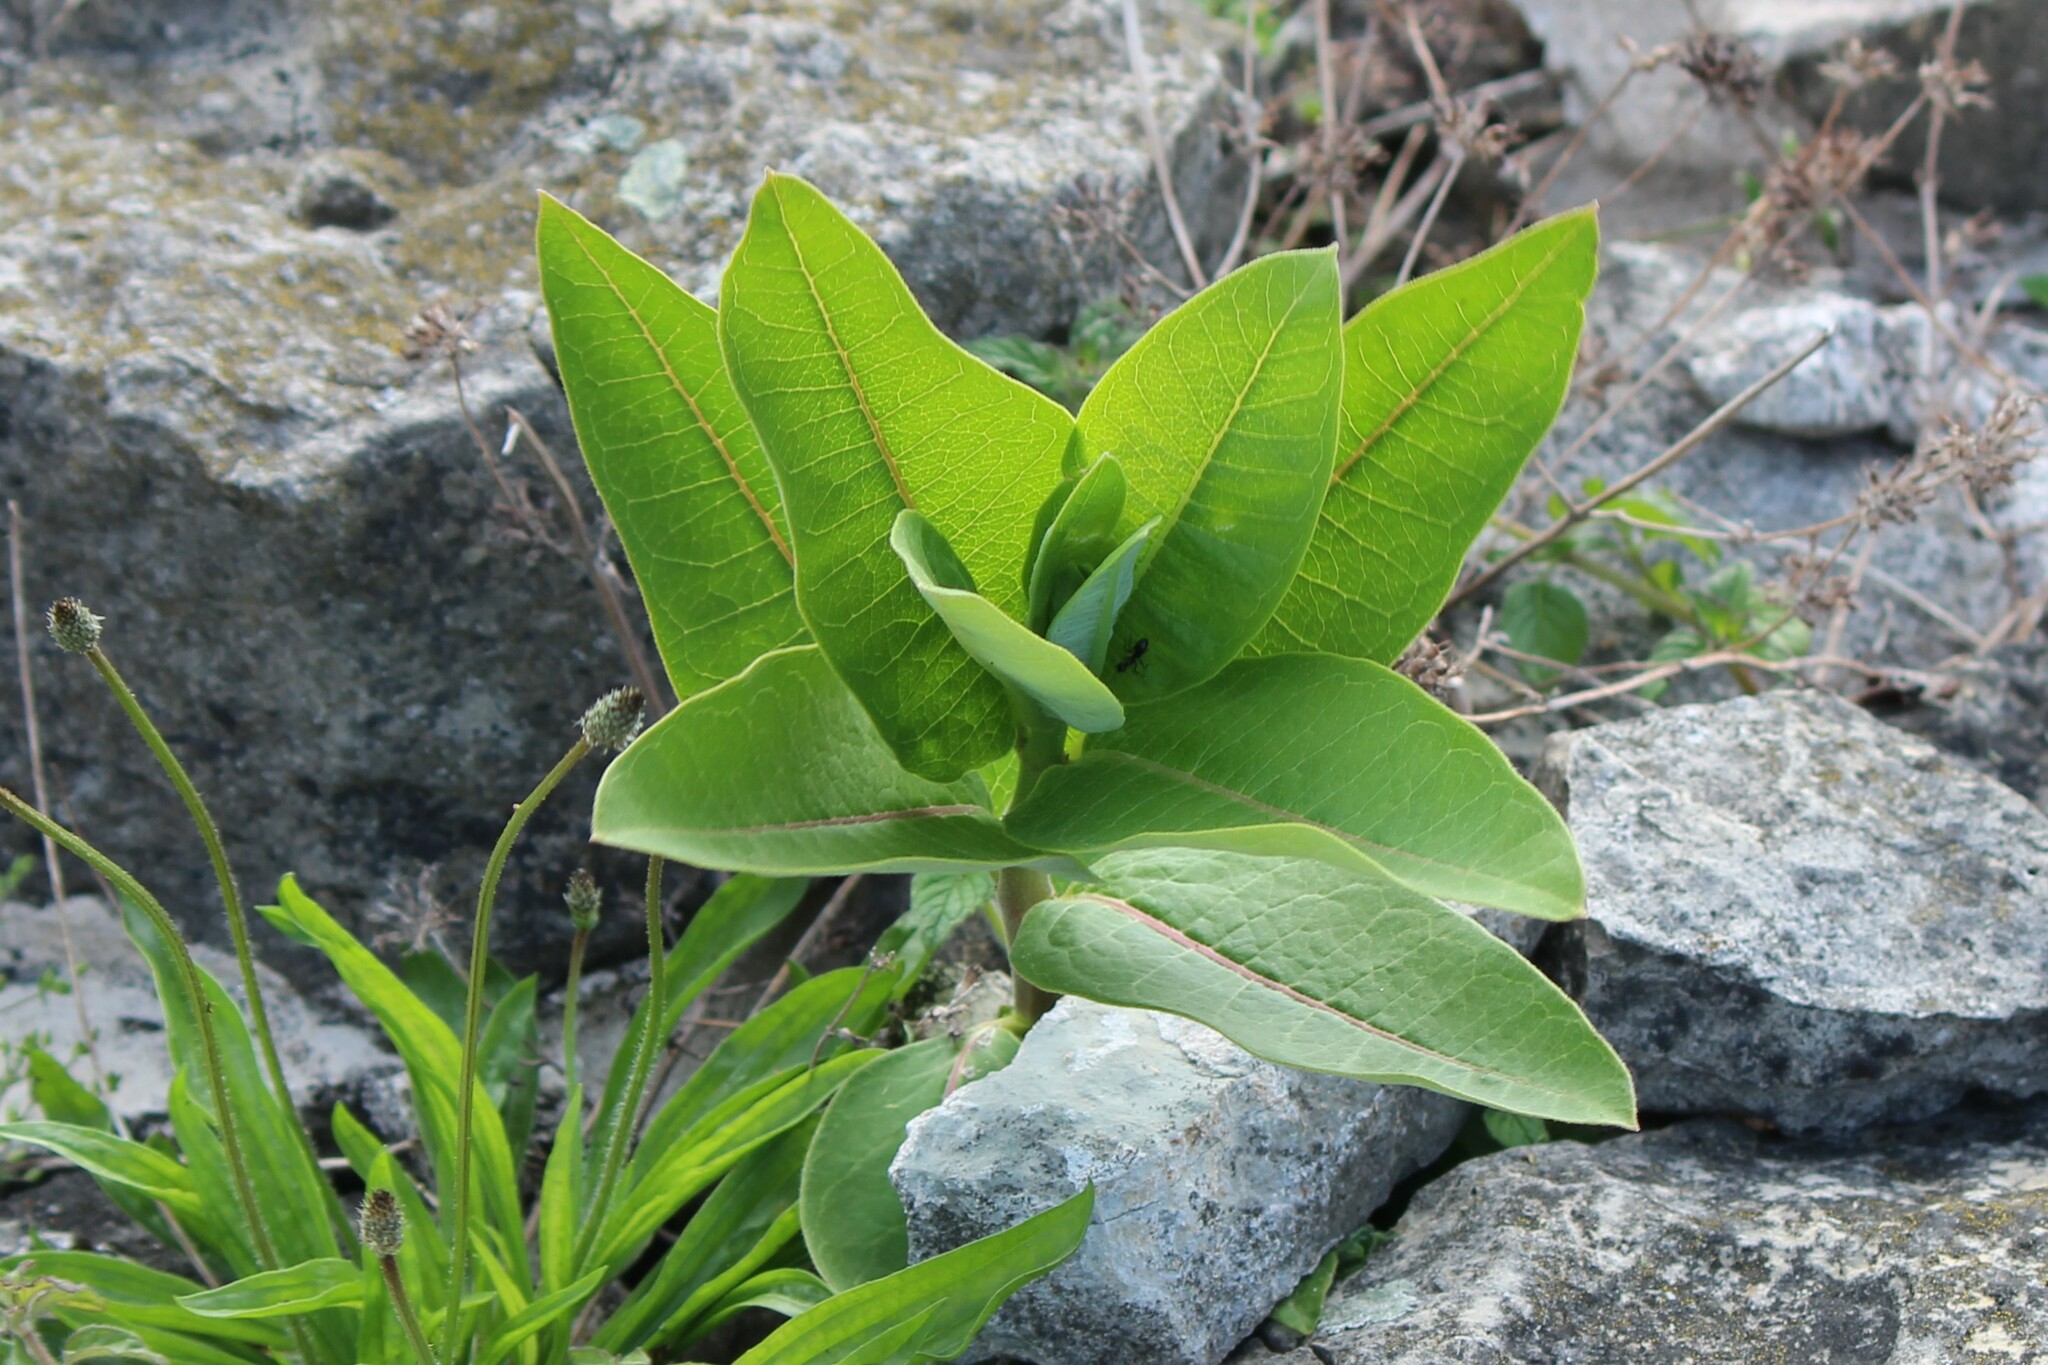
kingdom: Plantae
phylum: Tracheophyta
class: Magnoliopsida
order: Gentianales
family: Apocynaceae
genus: Asclepias
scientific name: Asclepias syriaca
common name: Common milkweed
